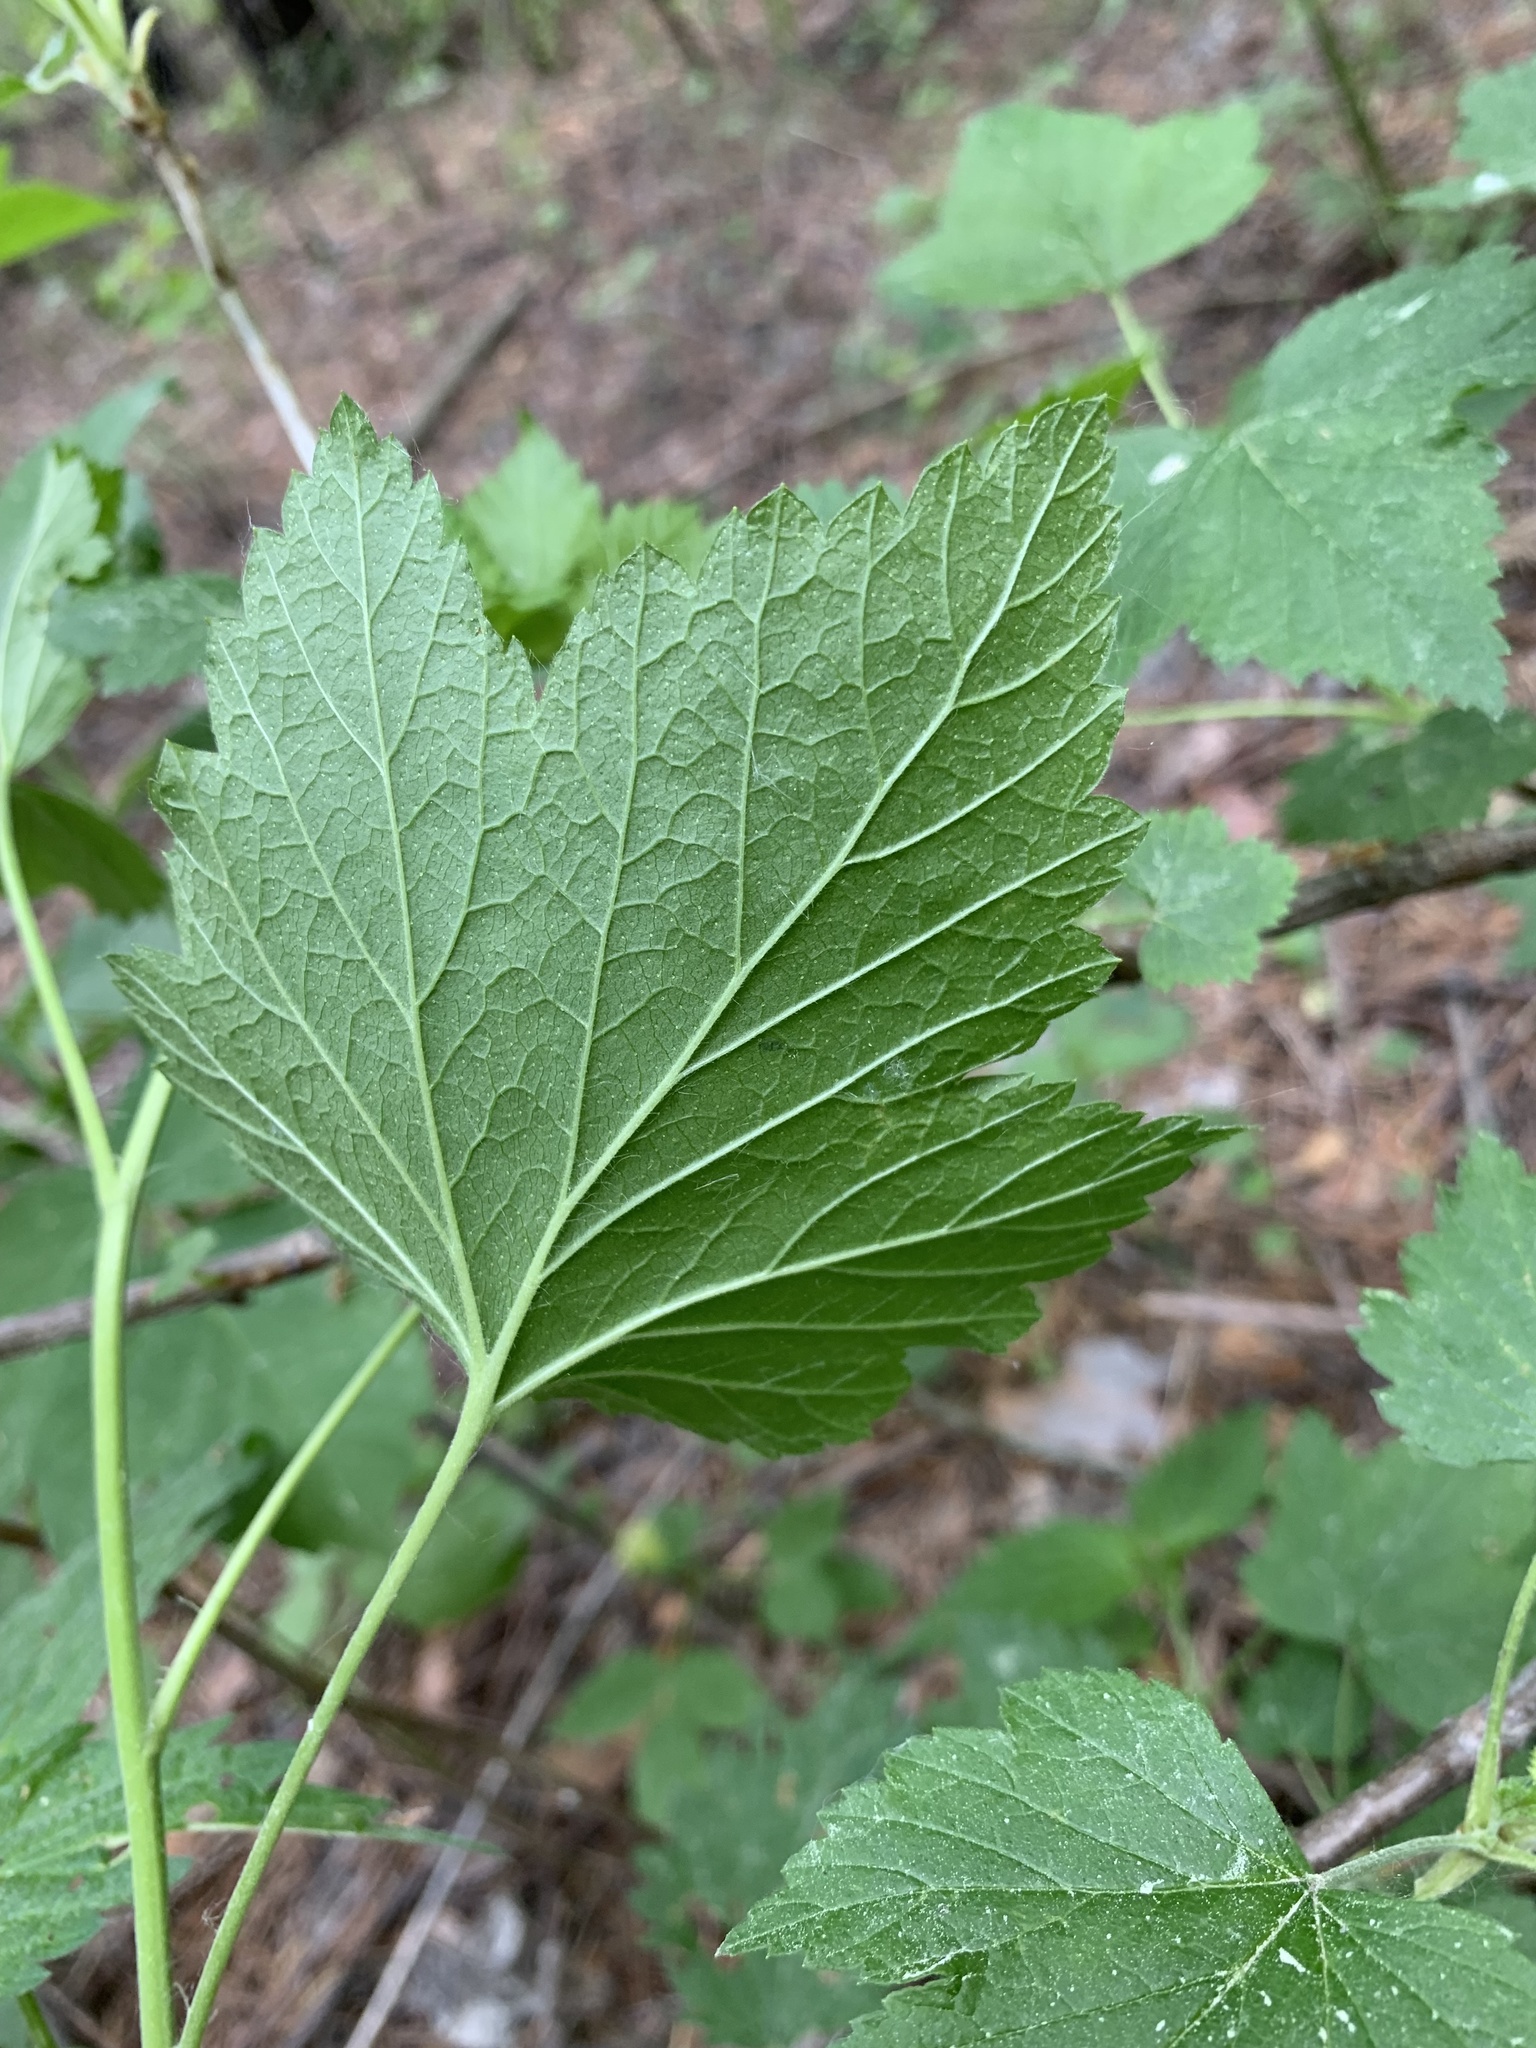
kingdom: Plantae
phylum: Tracheophyta
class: Magnoliopsida
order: Saxifragales
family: Grossulariaceae
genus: Ribes
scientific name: Ribes nigrum
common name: Black currant
